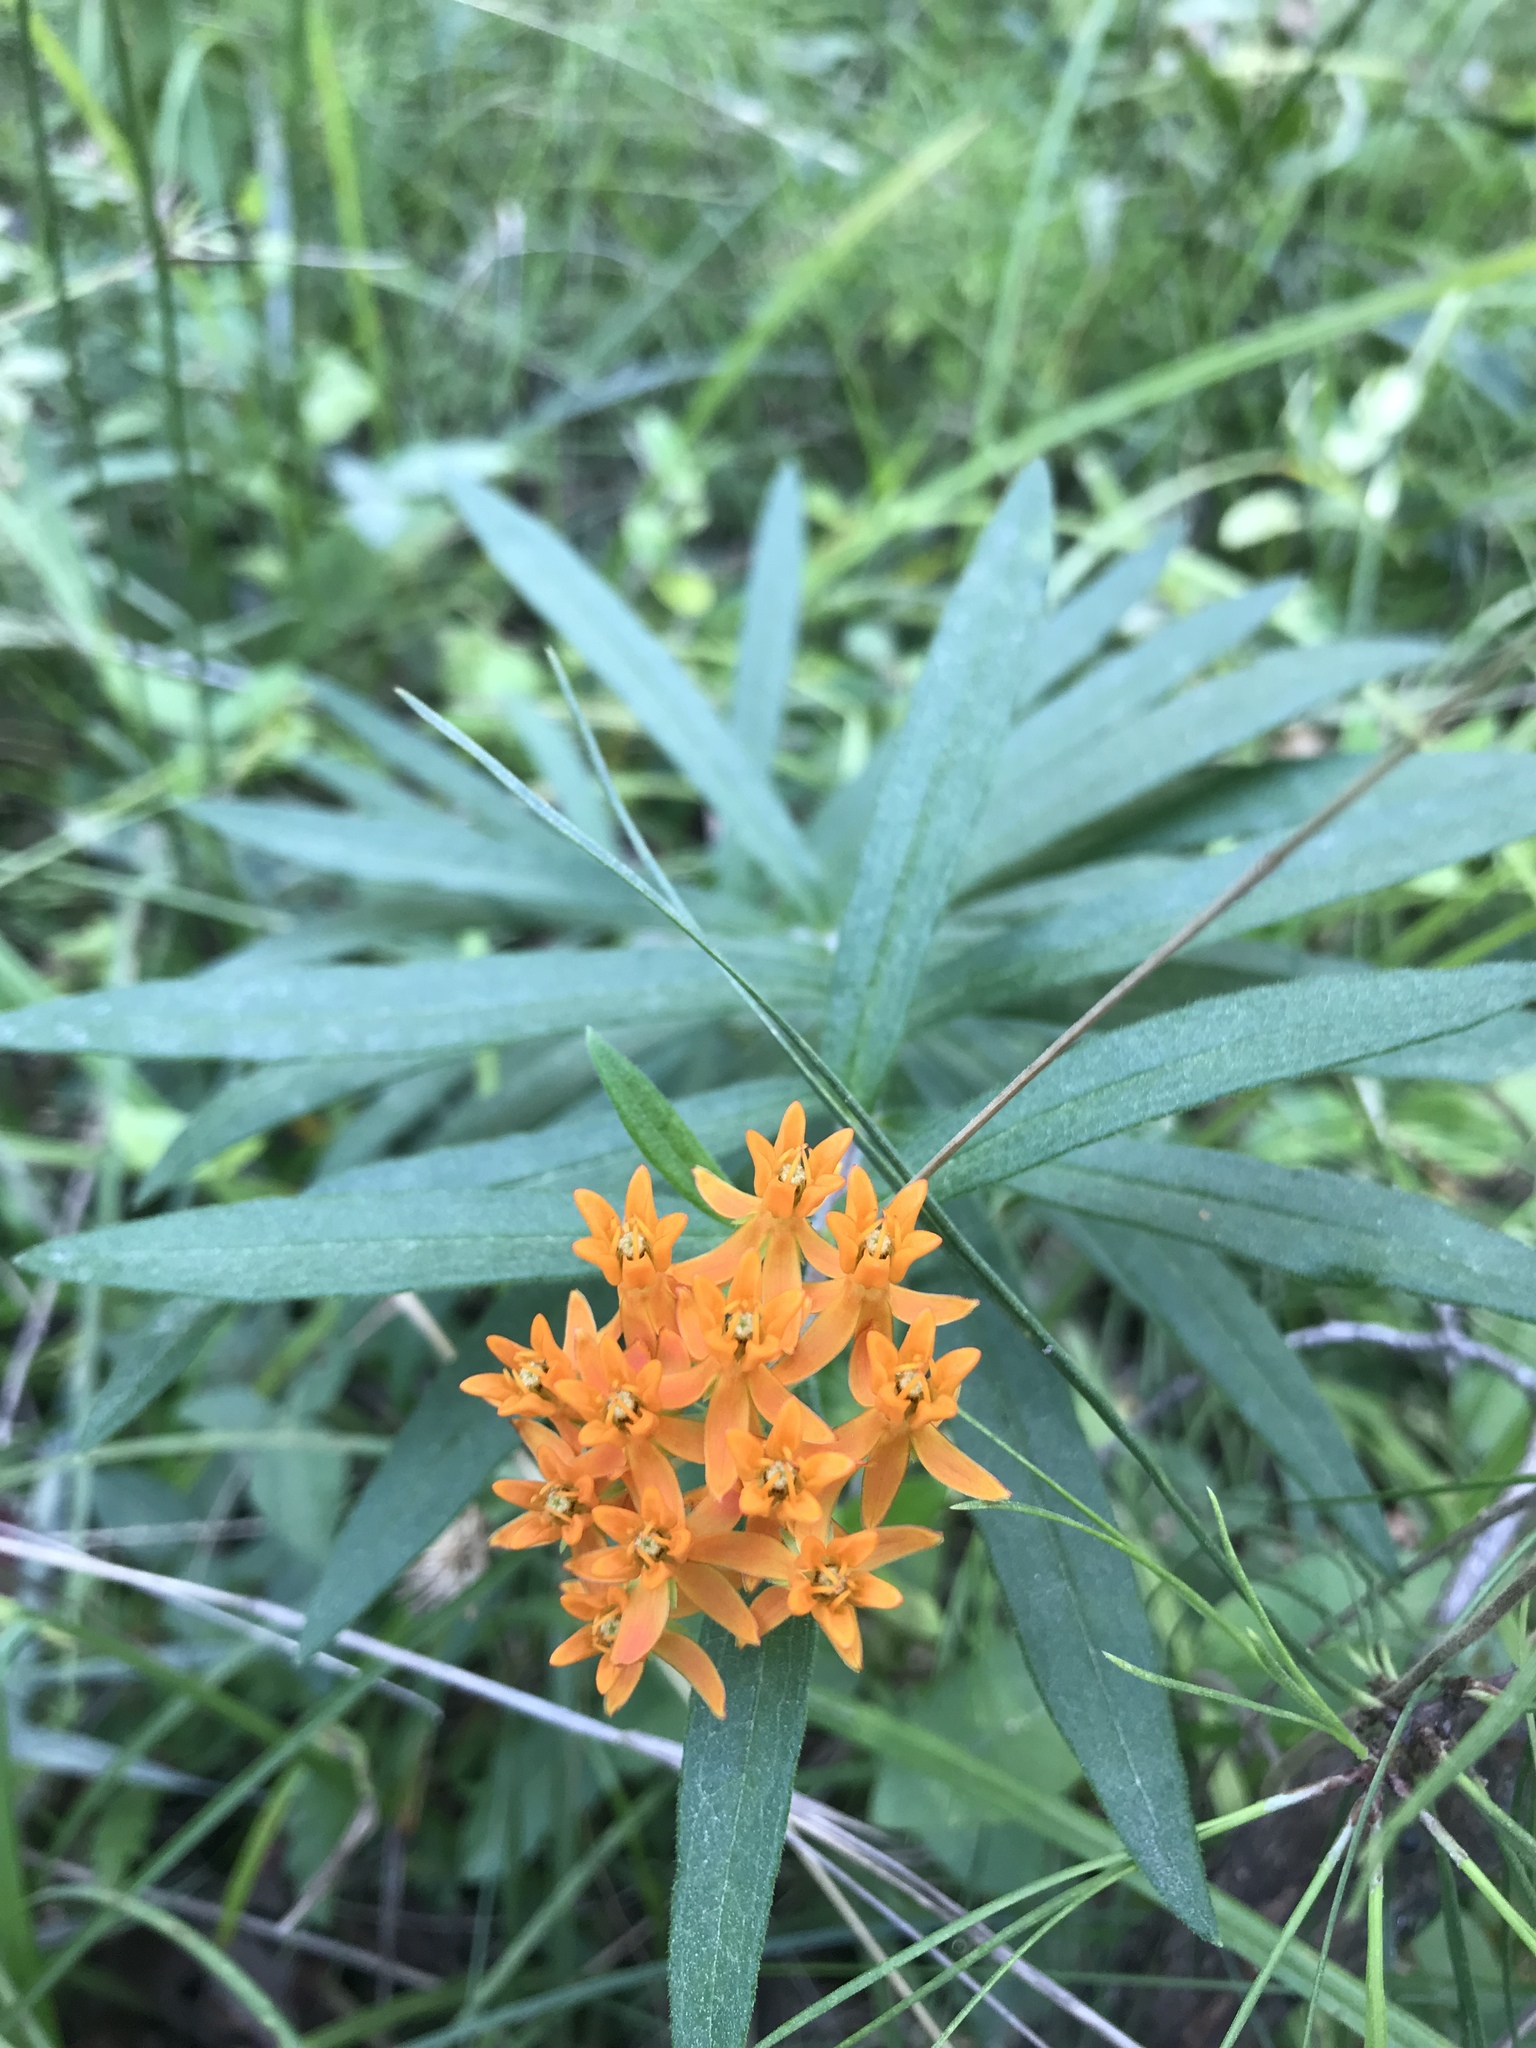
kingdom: Plantae
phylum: Tracheophyta
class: Magnoliopsida
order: Gentianales
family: Apocynaceae
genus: Asclepias
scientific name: Asclepias tuberosa
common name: Butterfly milkweed
